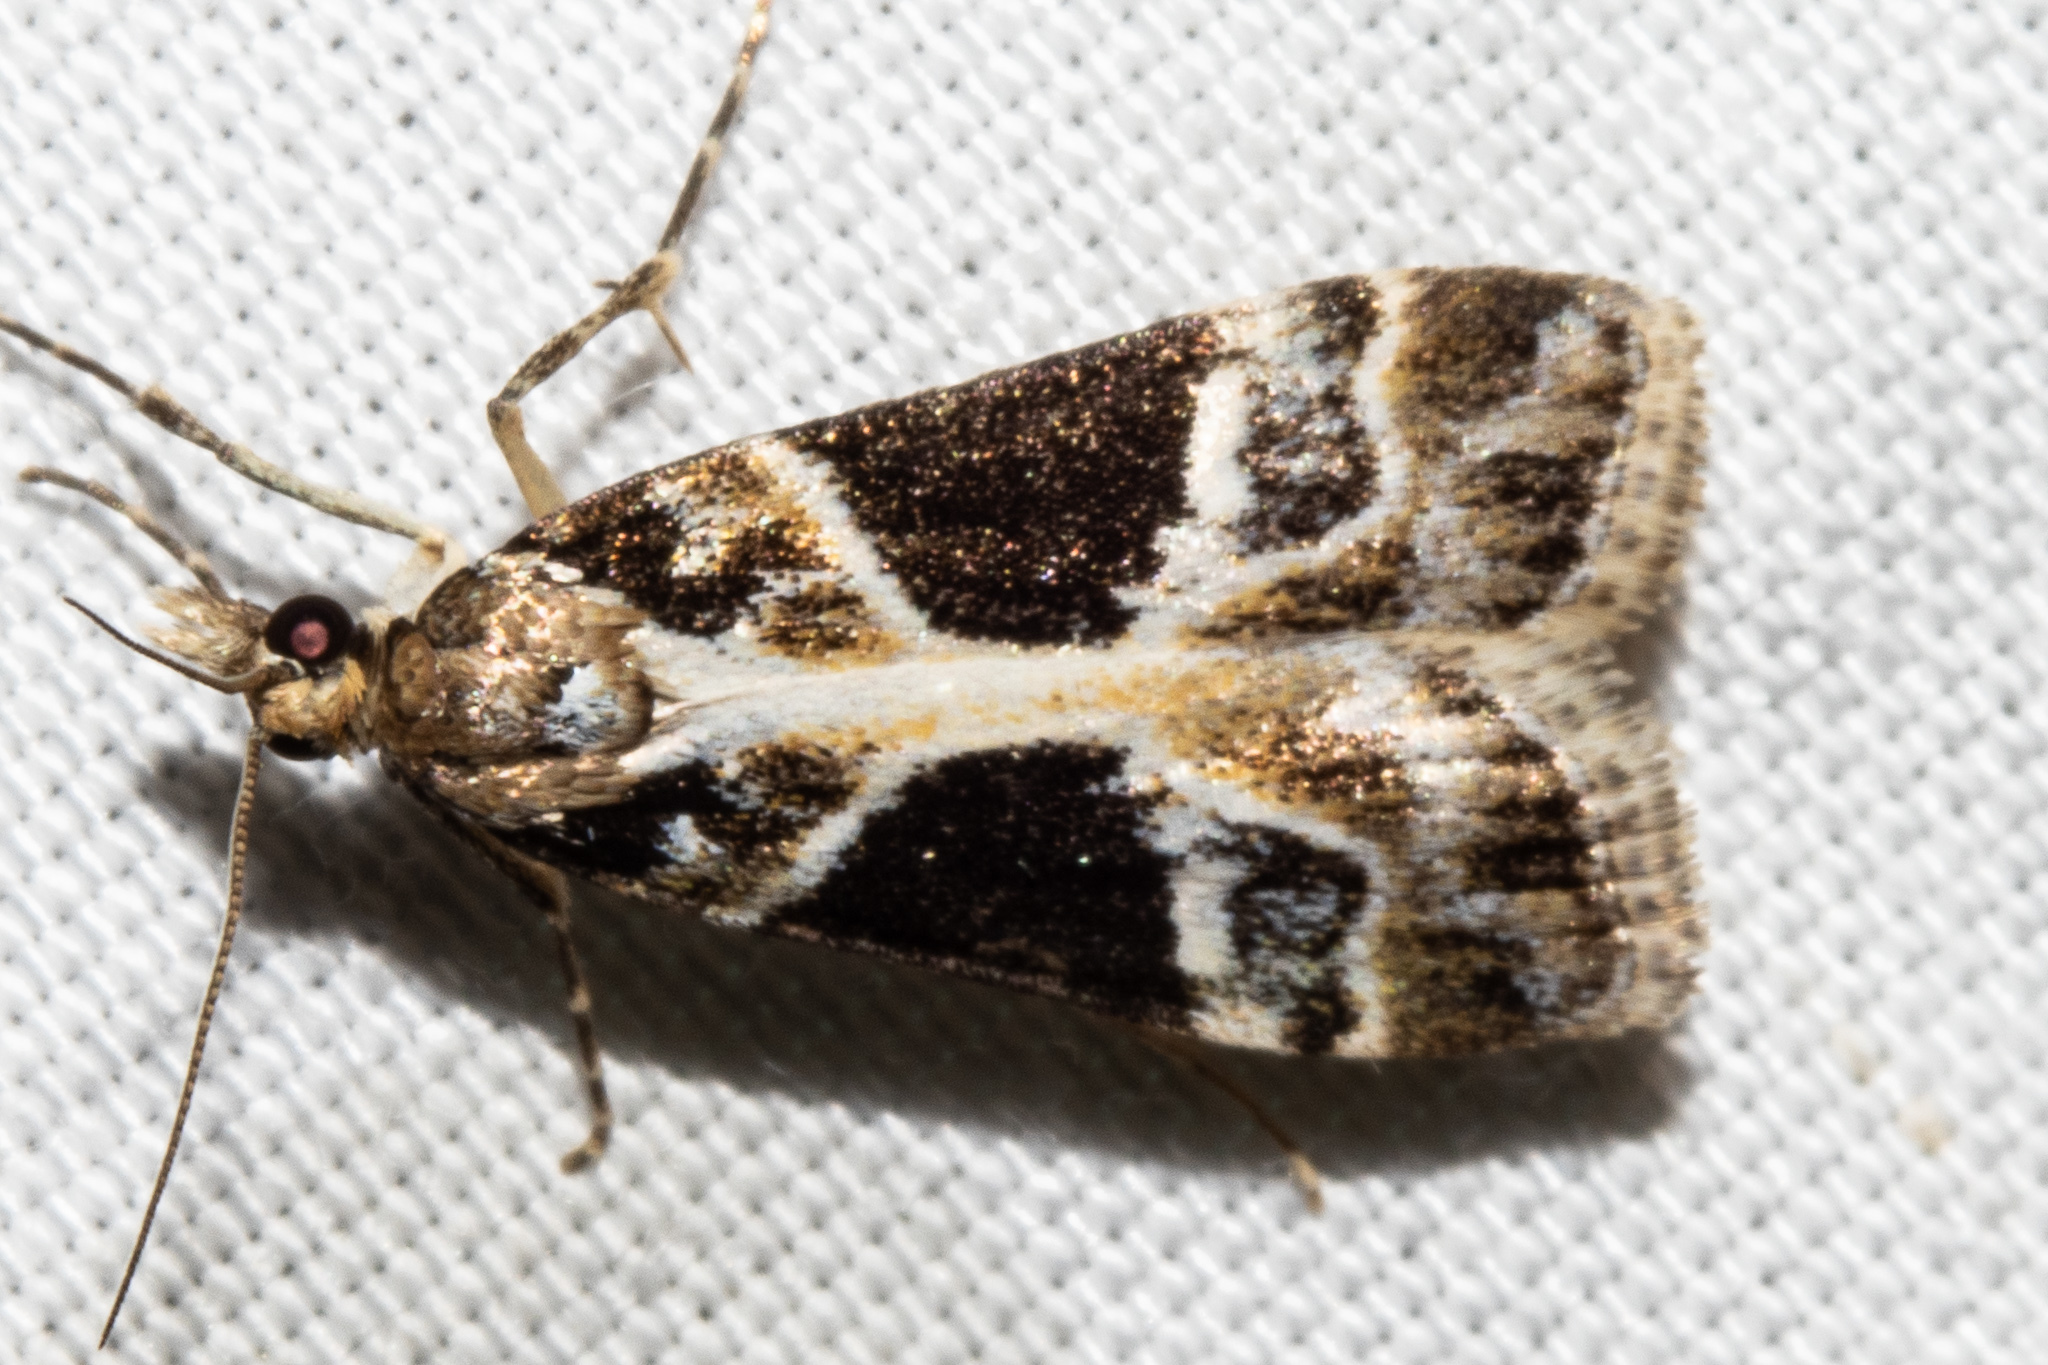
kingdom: Animalia
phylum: Arthropoda
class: Insecta
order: Lepidoptera
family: Crambidae
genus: Eudonia
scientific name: Eudonia melanaegis
